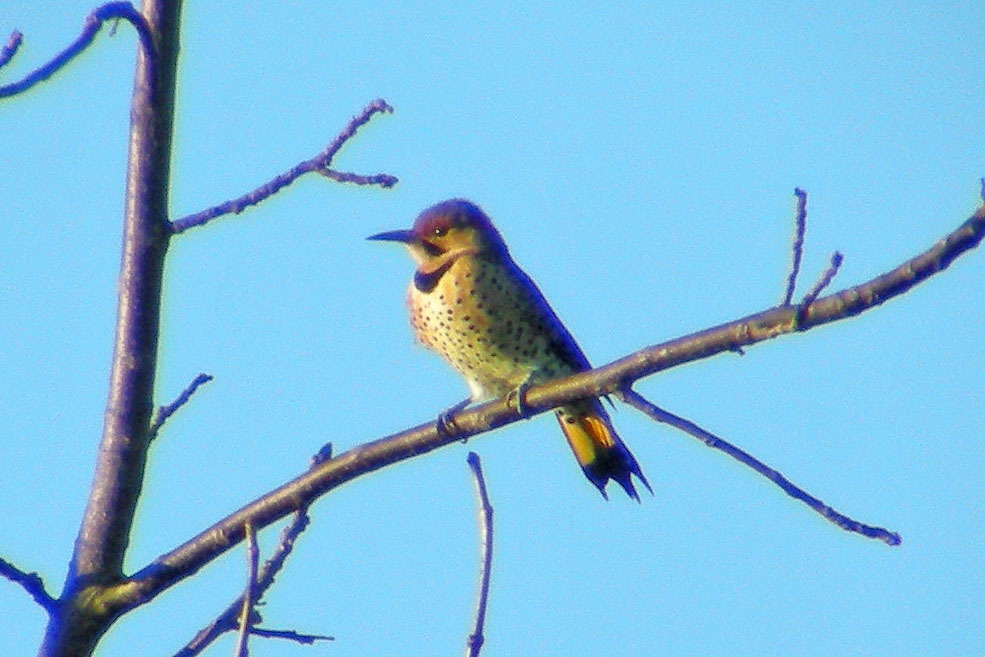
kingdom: Animalia
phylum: Chordata
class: Aves
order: Piciformes
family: Picidae
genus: Colaptes
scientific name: Colaptes auratus
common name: Northern flicker
